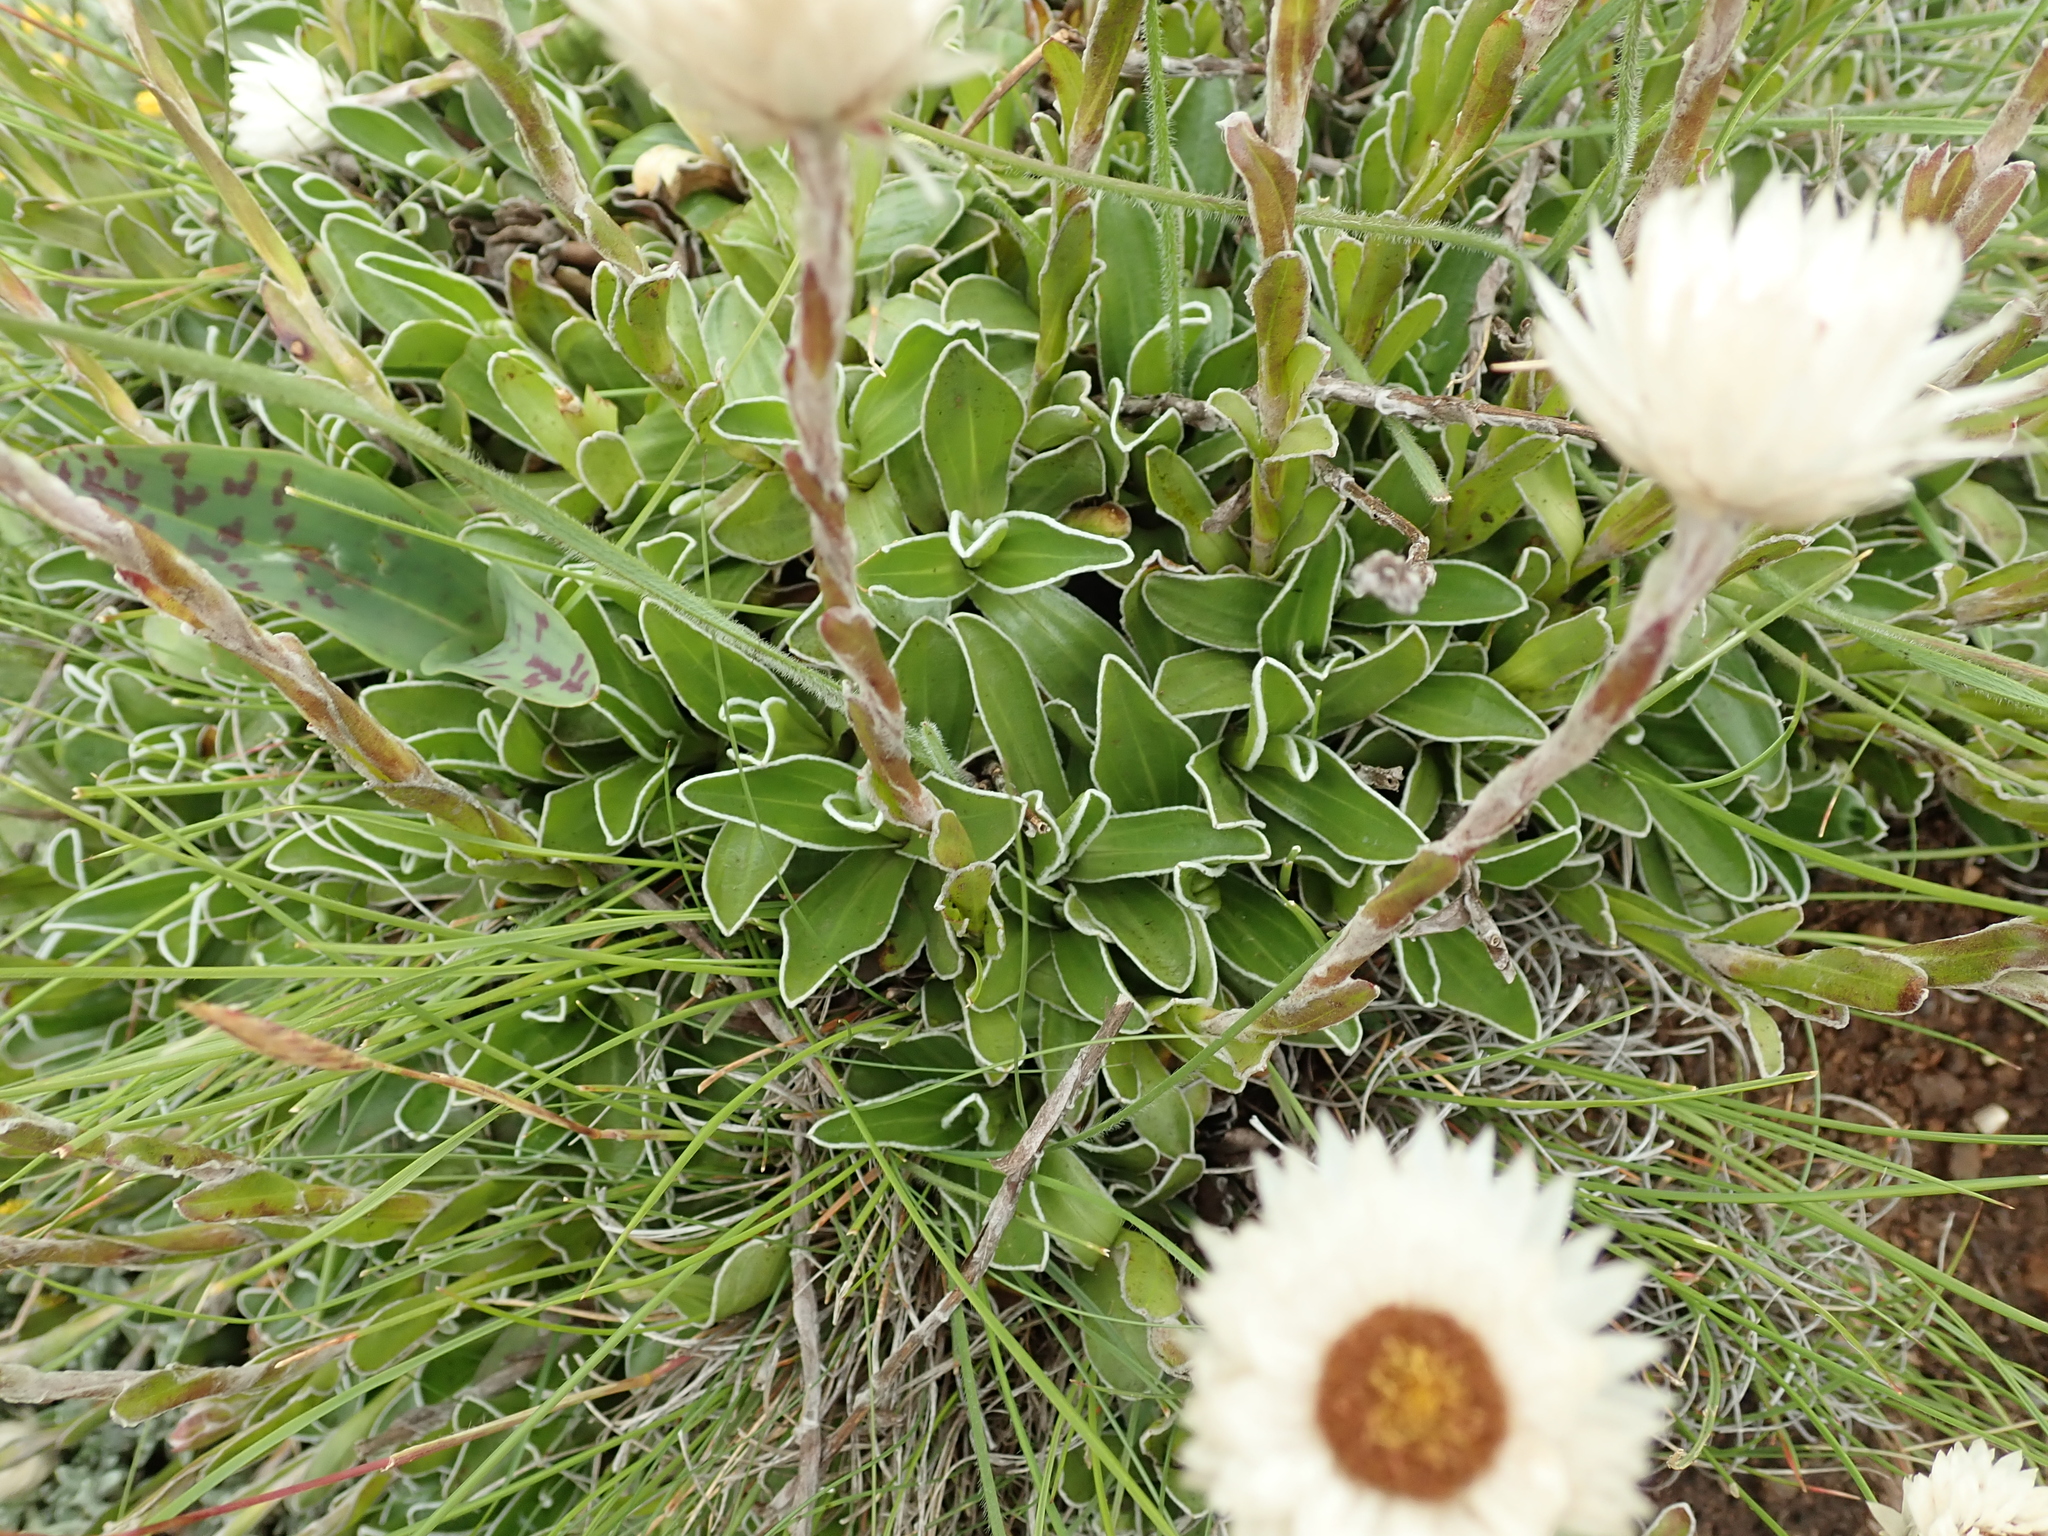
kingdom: Plantae
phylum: Tracheophyta
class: Magnoliopsida
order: Asterales
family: Asteraceae
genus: Helichrysum
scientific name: Helichrysum marginatum
